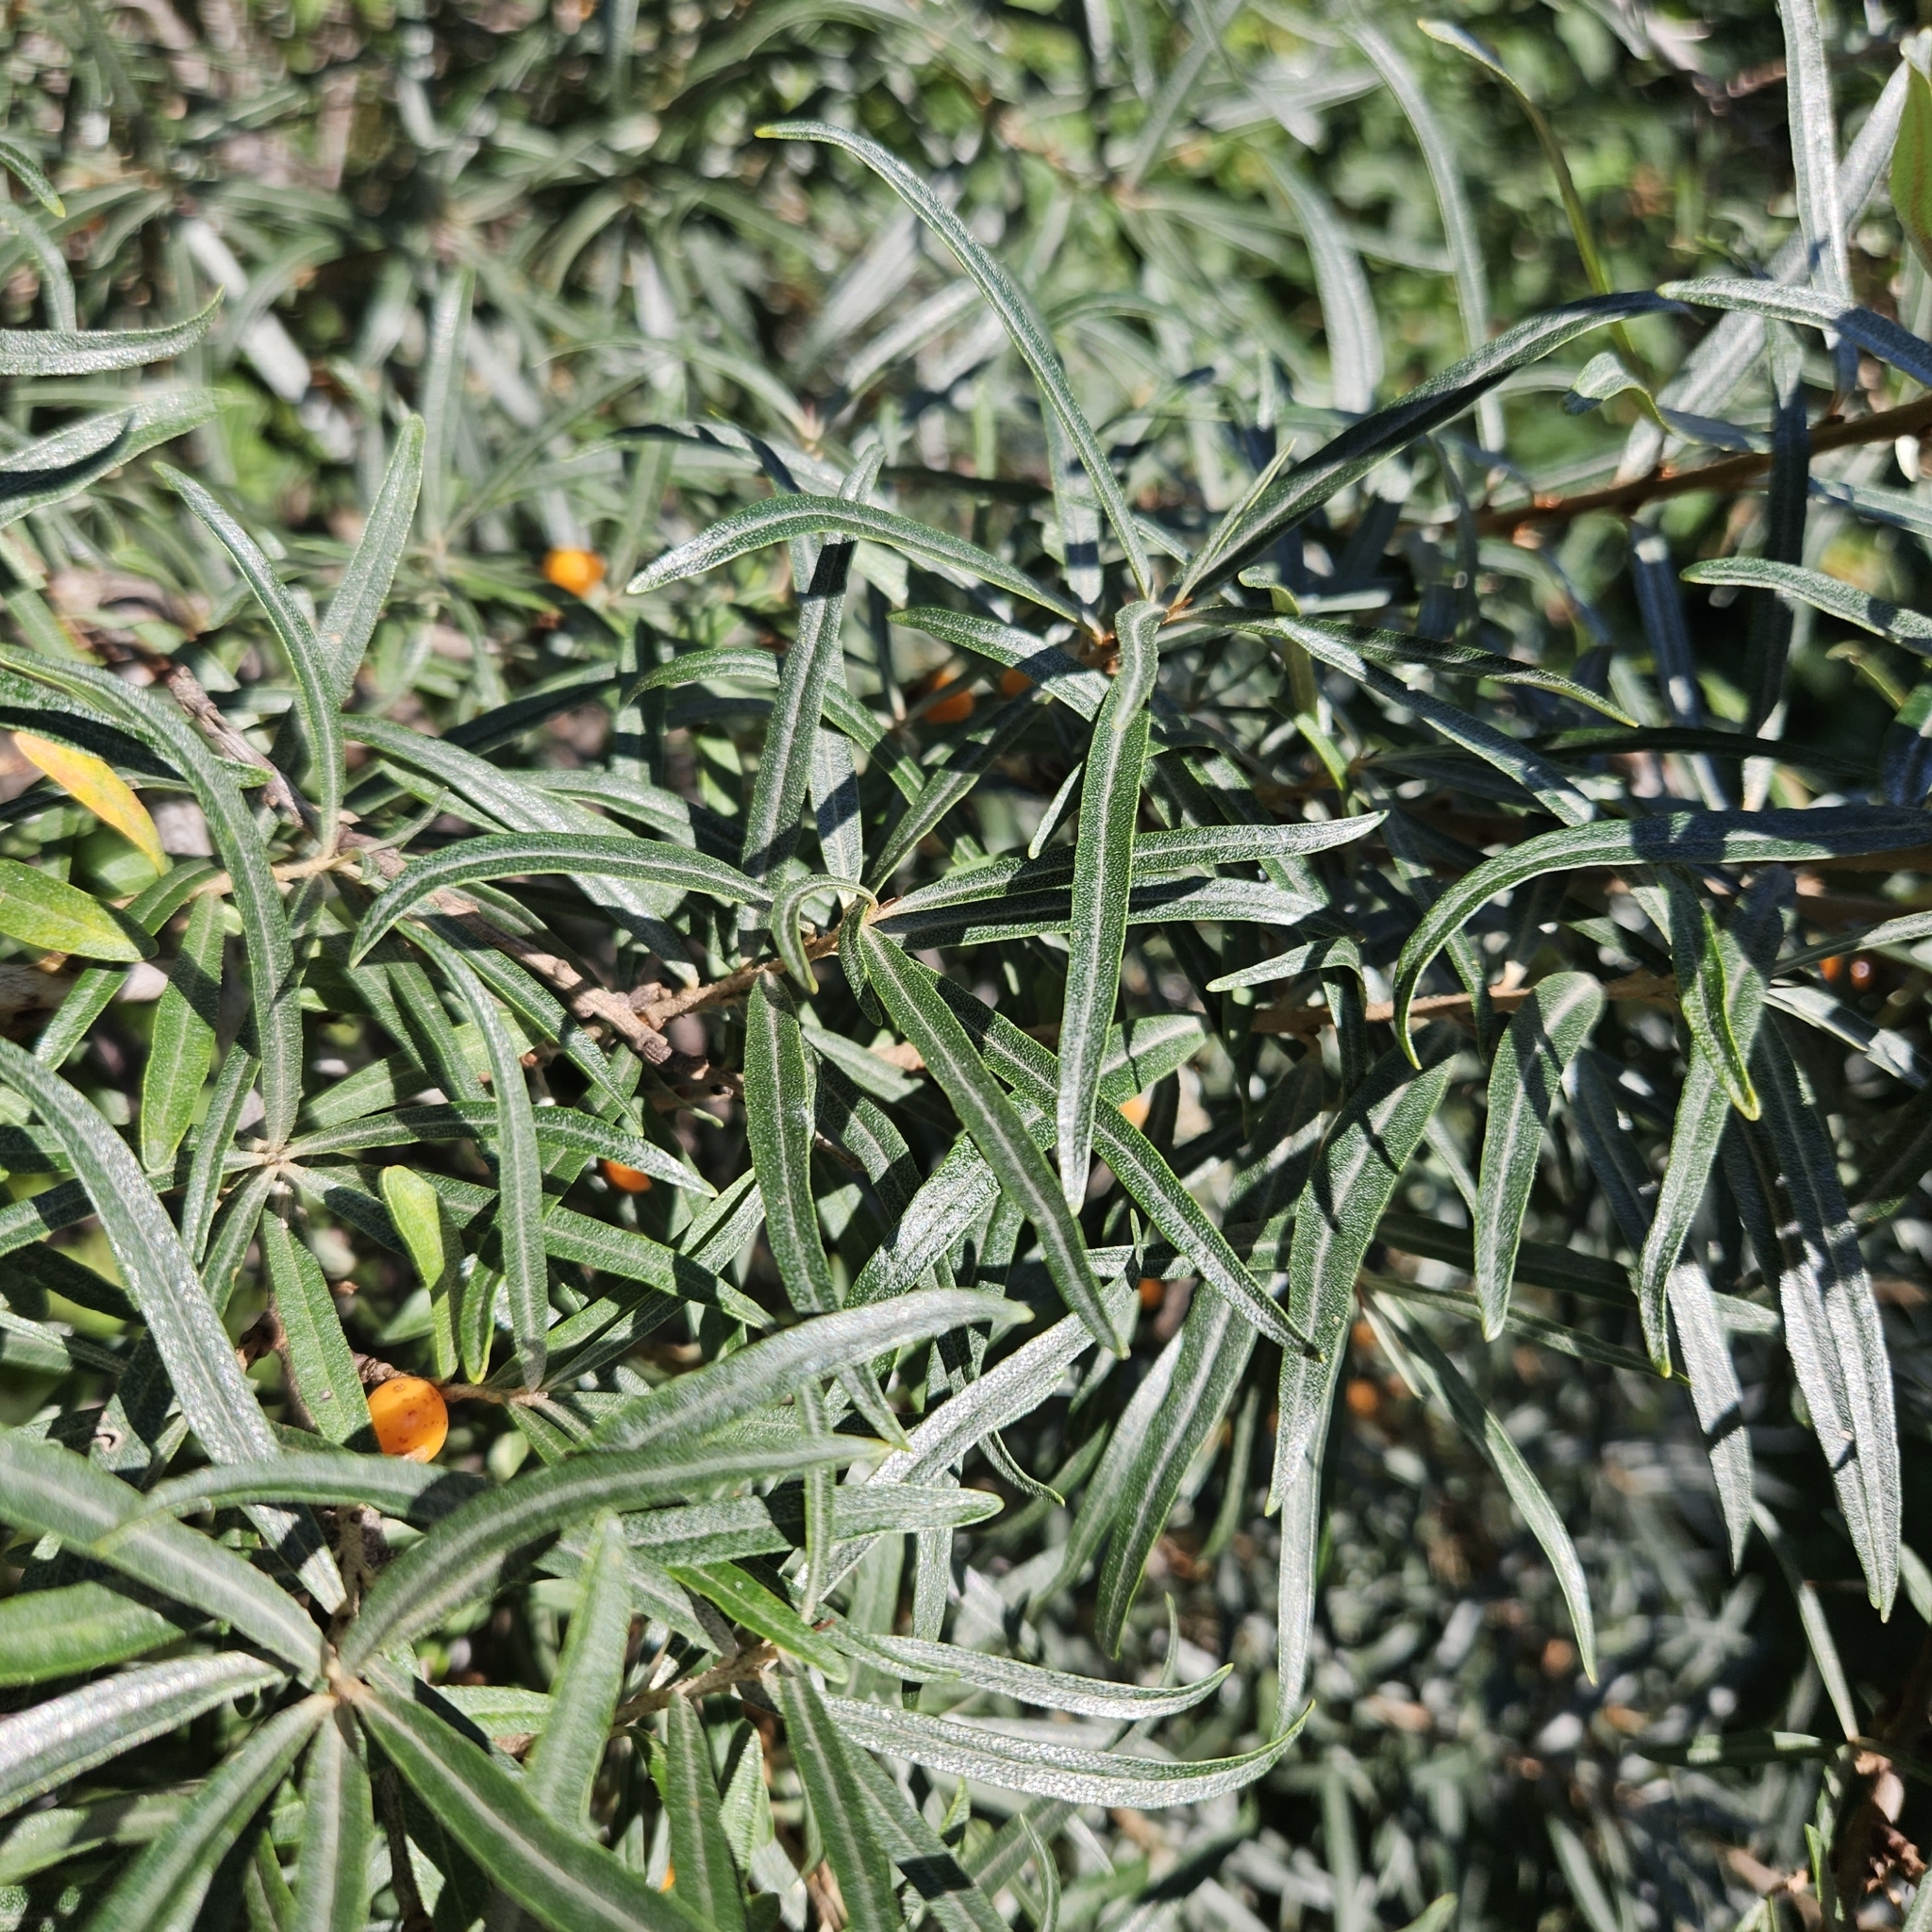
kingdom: Plantae
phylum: Tracheophyta
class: Magnoliopsida
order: Rosales
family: Elaeagnaceae
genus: Hippophae
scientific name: Hippophae rhamnoides
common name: Sea-buckthorn
